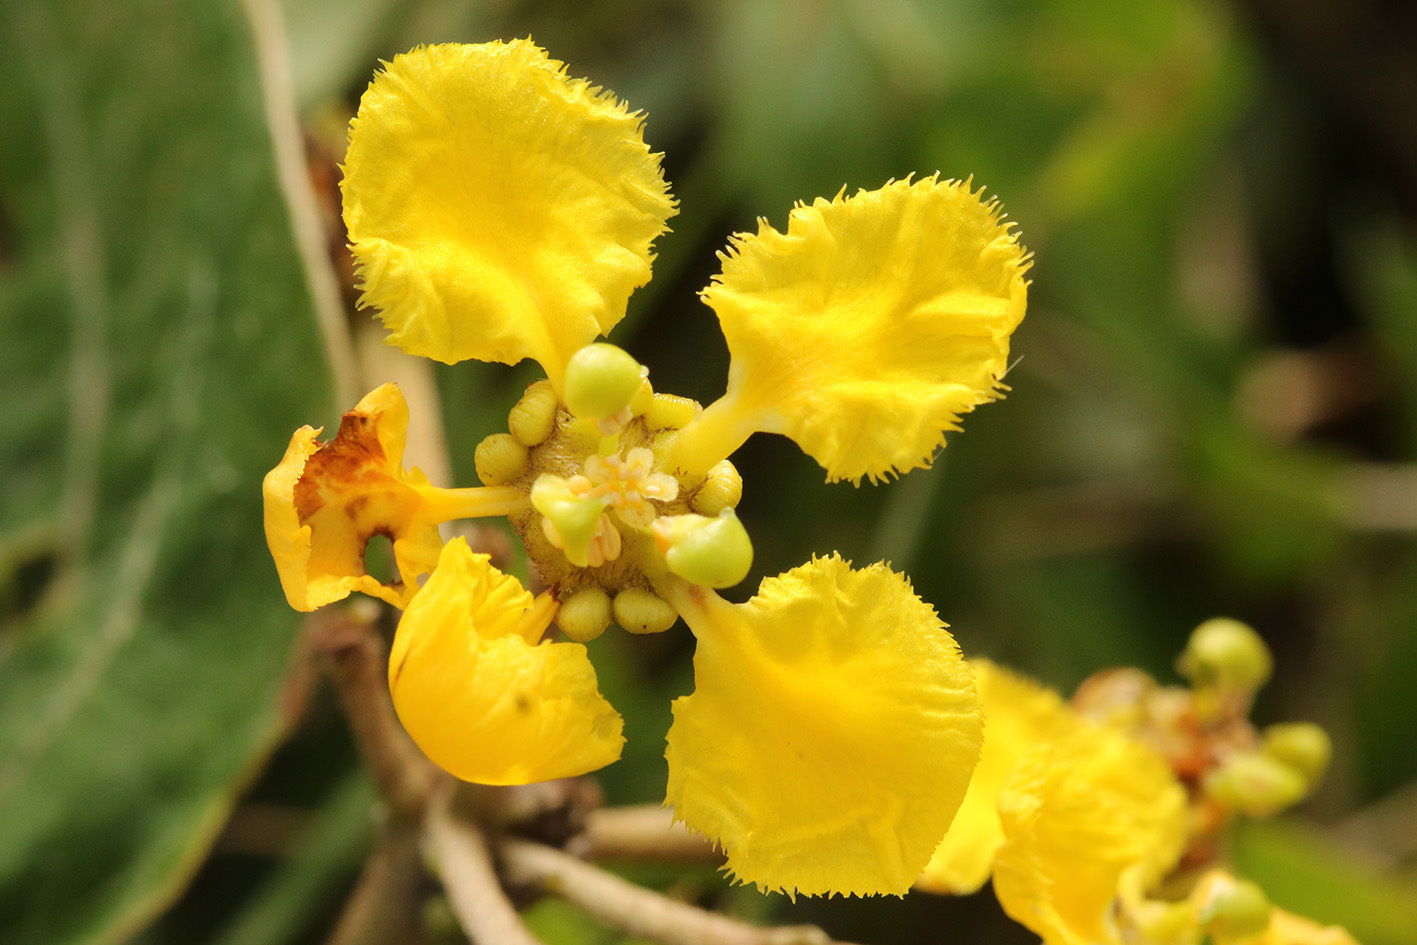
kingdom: Plantae
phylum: Tracheophyta
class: Magnoliopsida
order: Malpighiales
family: Malpighiaceae
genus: Stigmaphyllon
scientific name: Stigmaphyllon bonariense
